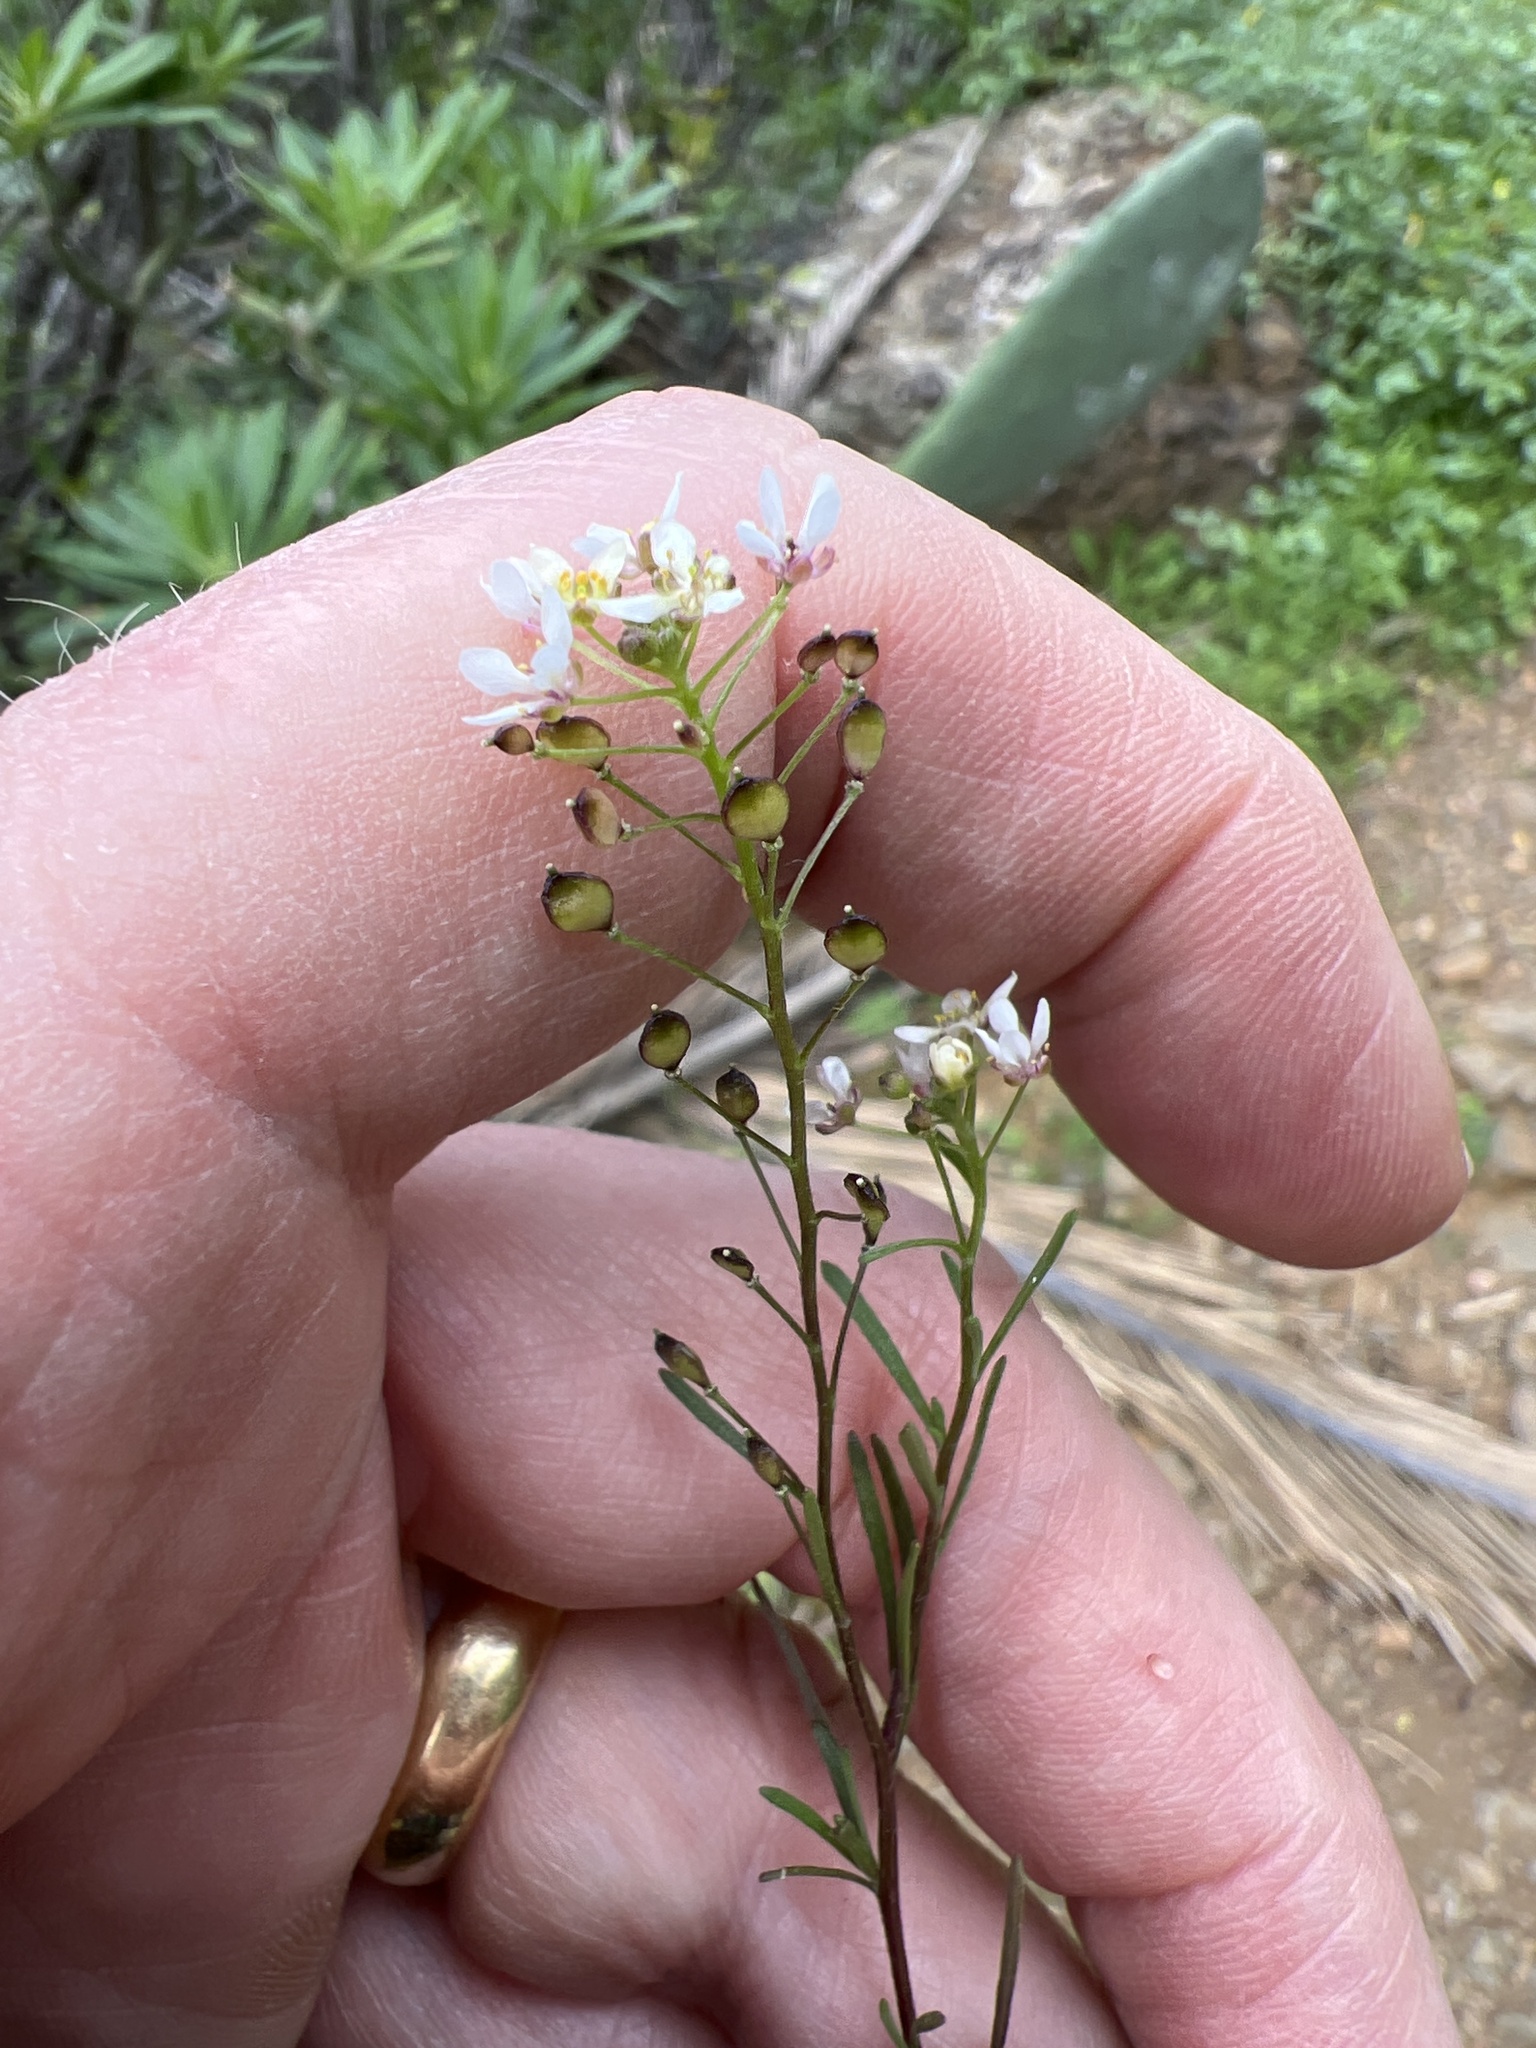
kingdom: Plantae
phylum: Tracheophyta
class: Magnoliopsida
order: Brassicales
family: Brassicaceae
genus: Lobularia
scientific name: Lobularia canariensis
